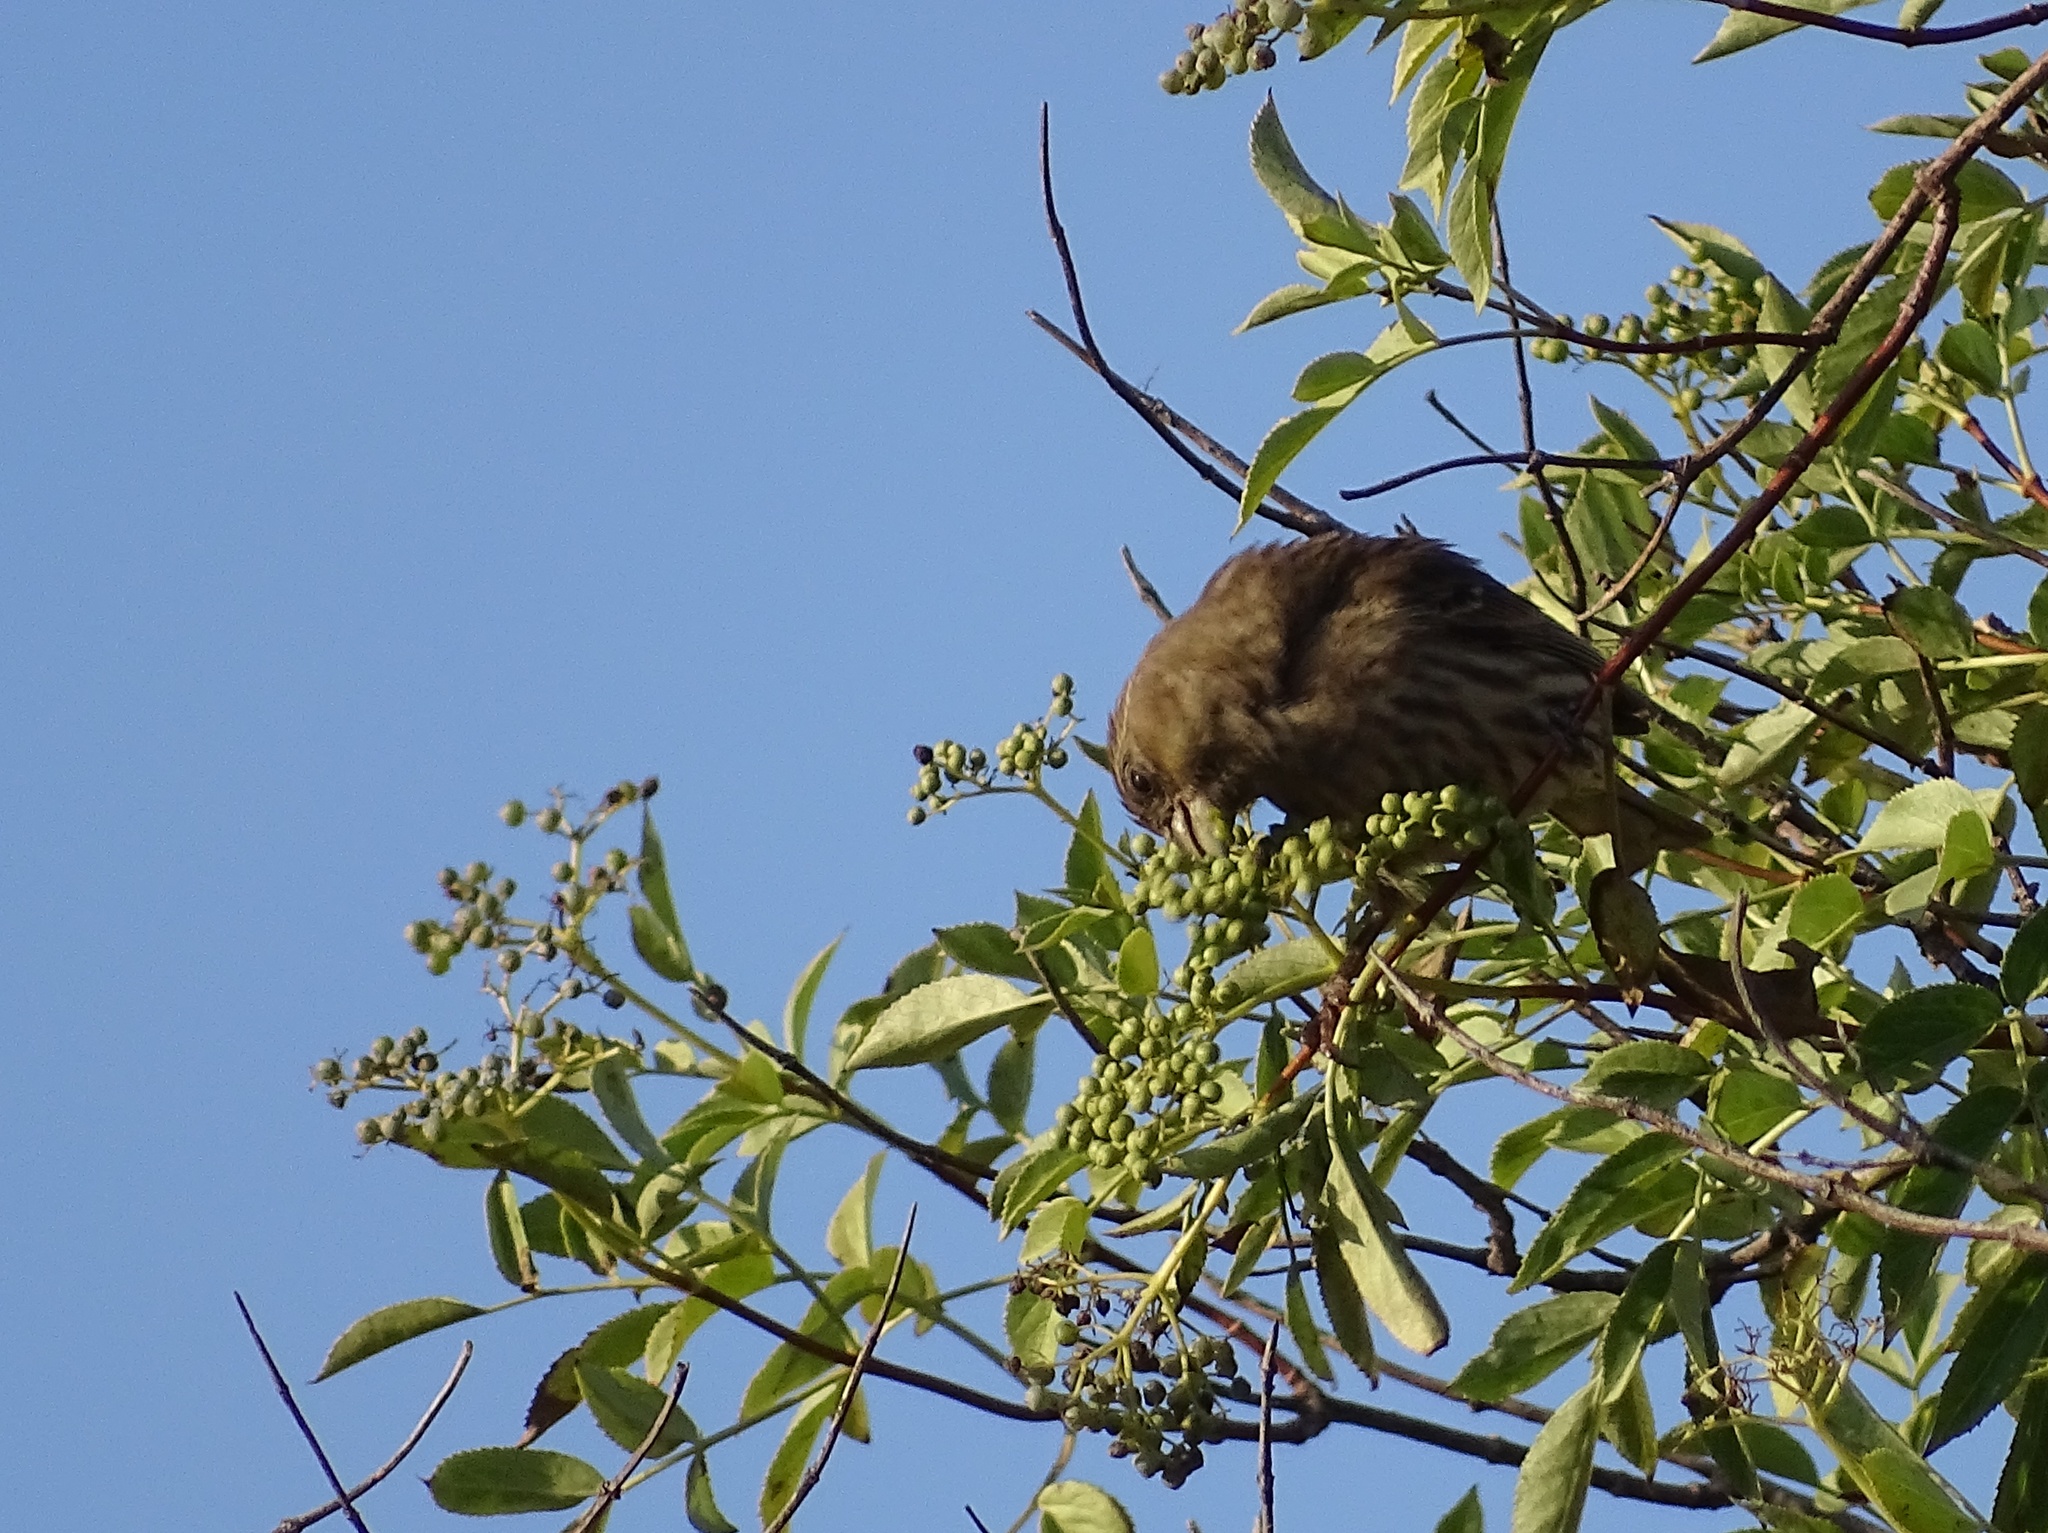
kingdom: Animalia
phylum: Chordata
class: Aves
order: Passeriformes
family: Fringillidae
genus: Haemorhous
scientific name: Haemorhous mexicanus
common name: House finch
